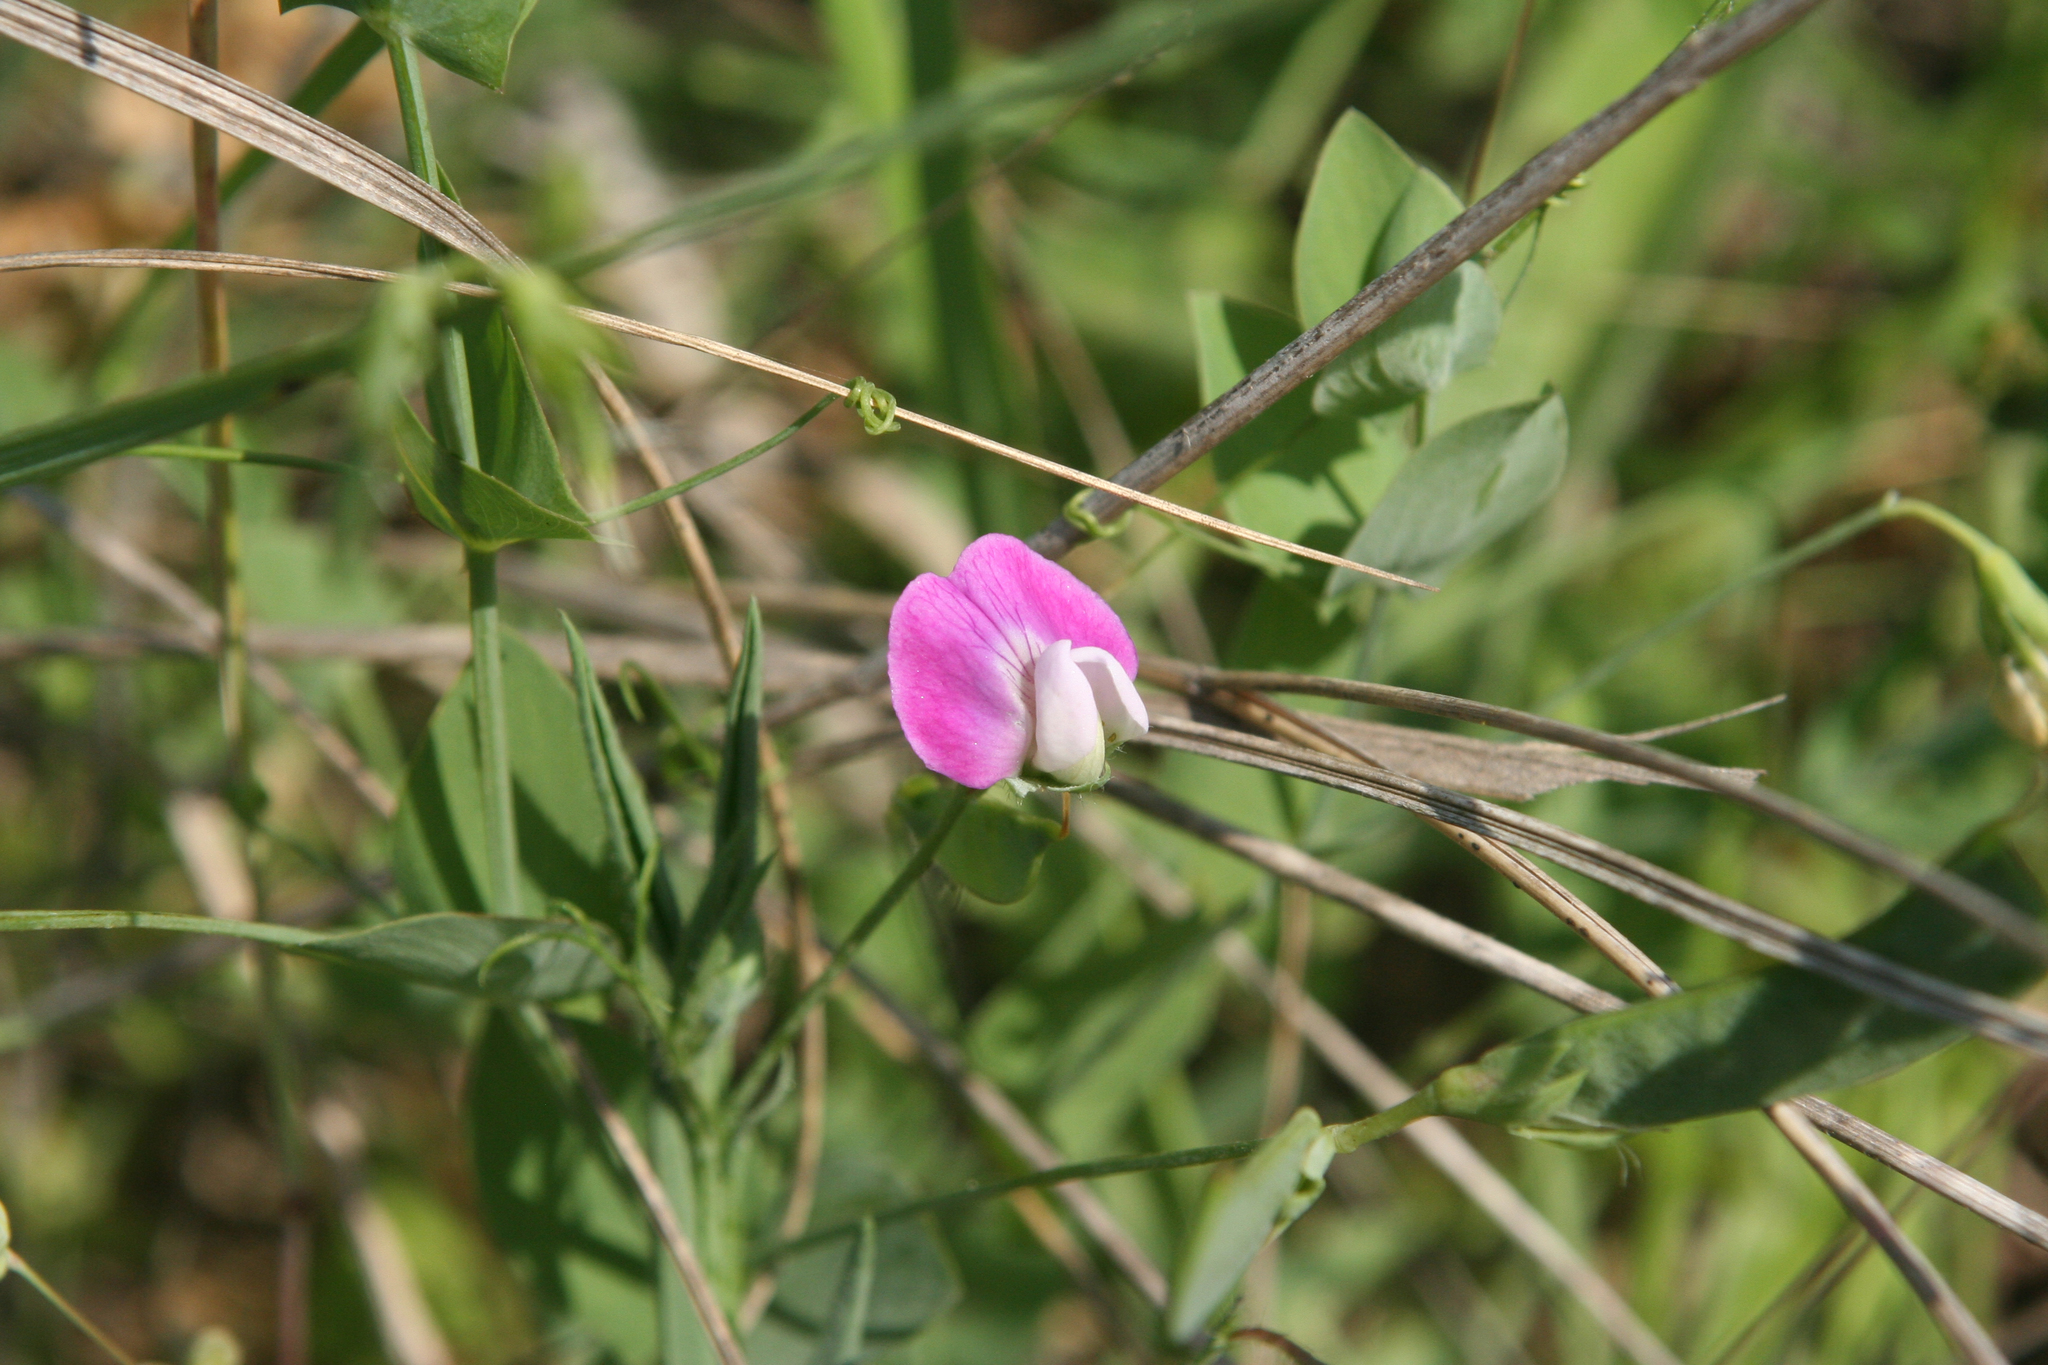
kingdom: Plantae
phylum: Tracheophyta
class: Magnoliopsida
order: Fabales
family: Fabaceae
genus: Lathyrus
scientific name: Lathyrus hirsutus
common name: Hairy vetchling
